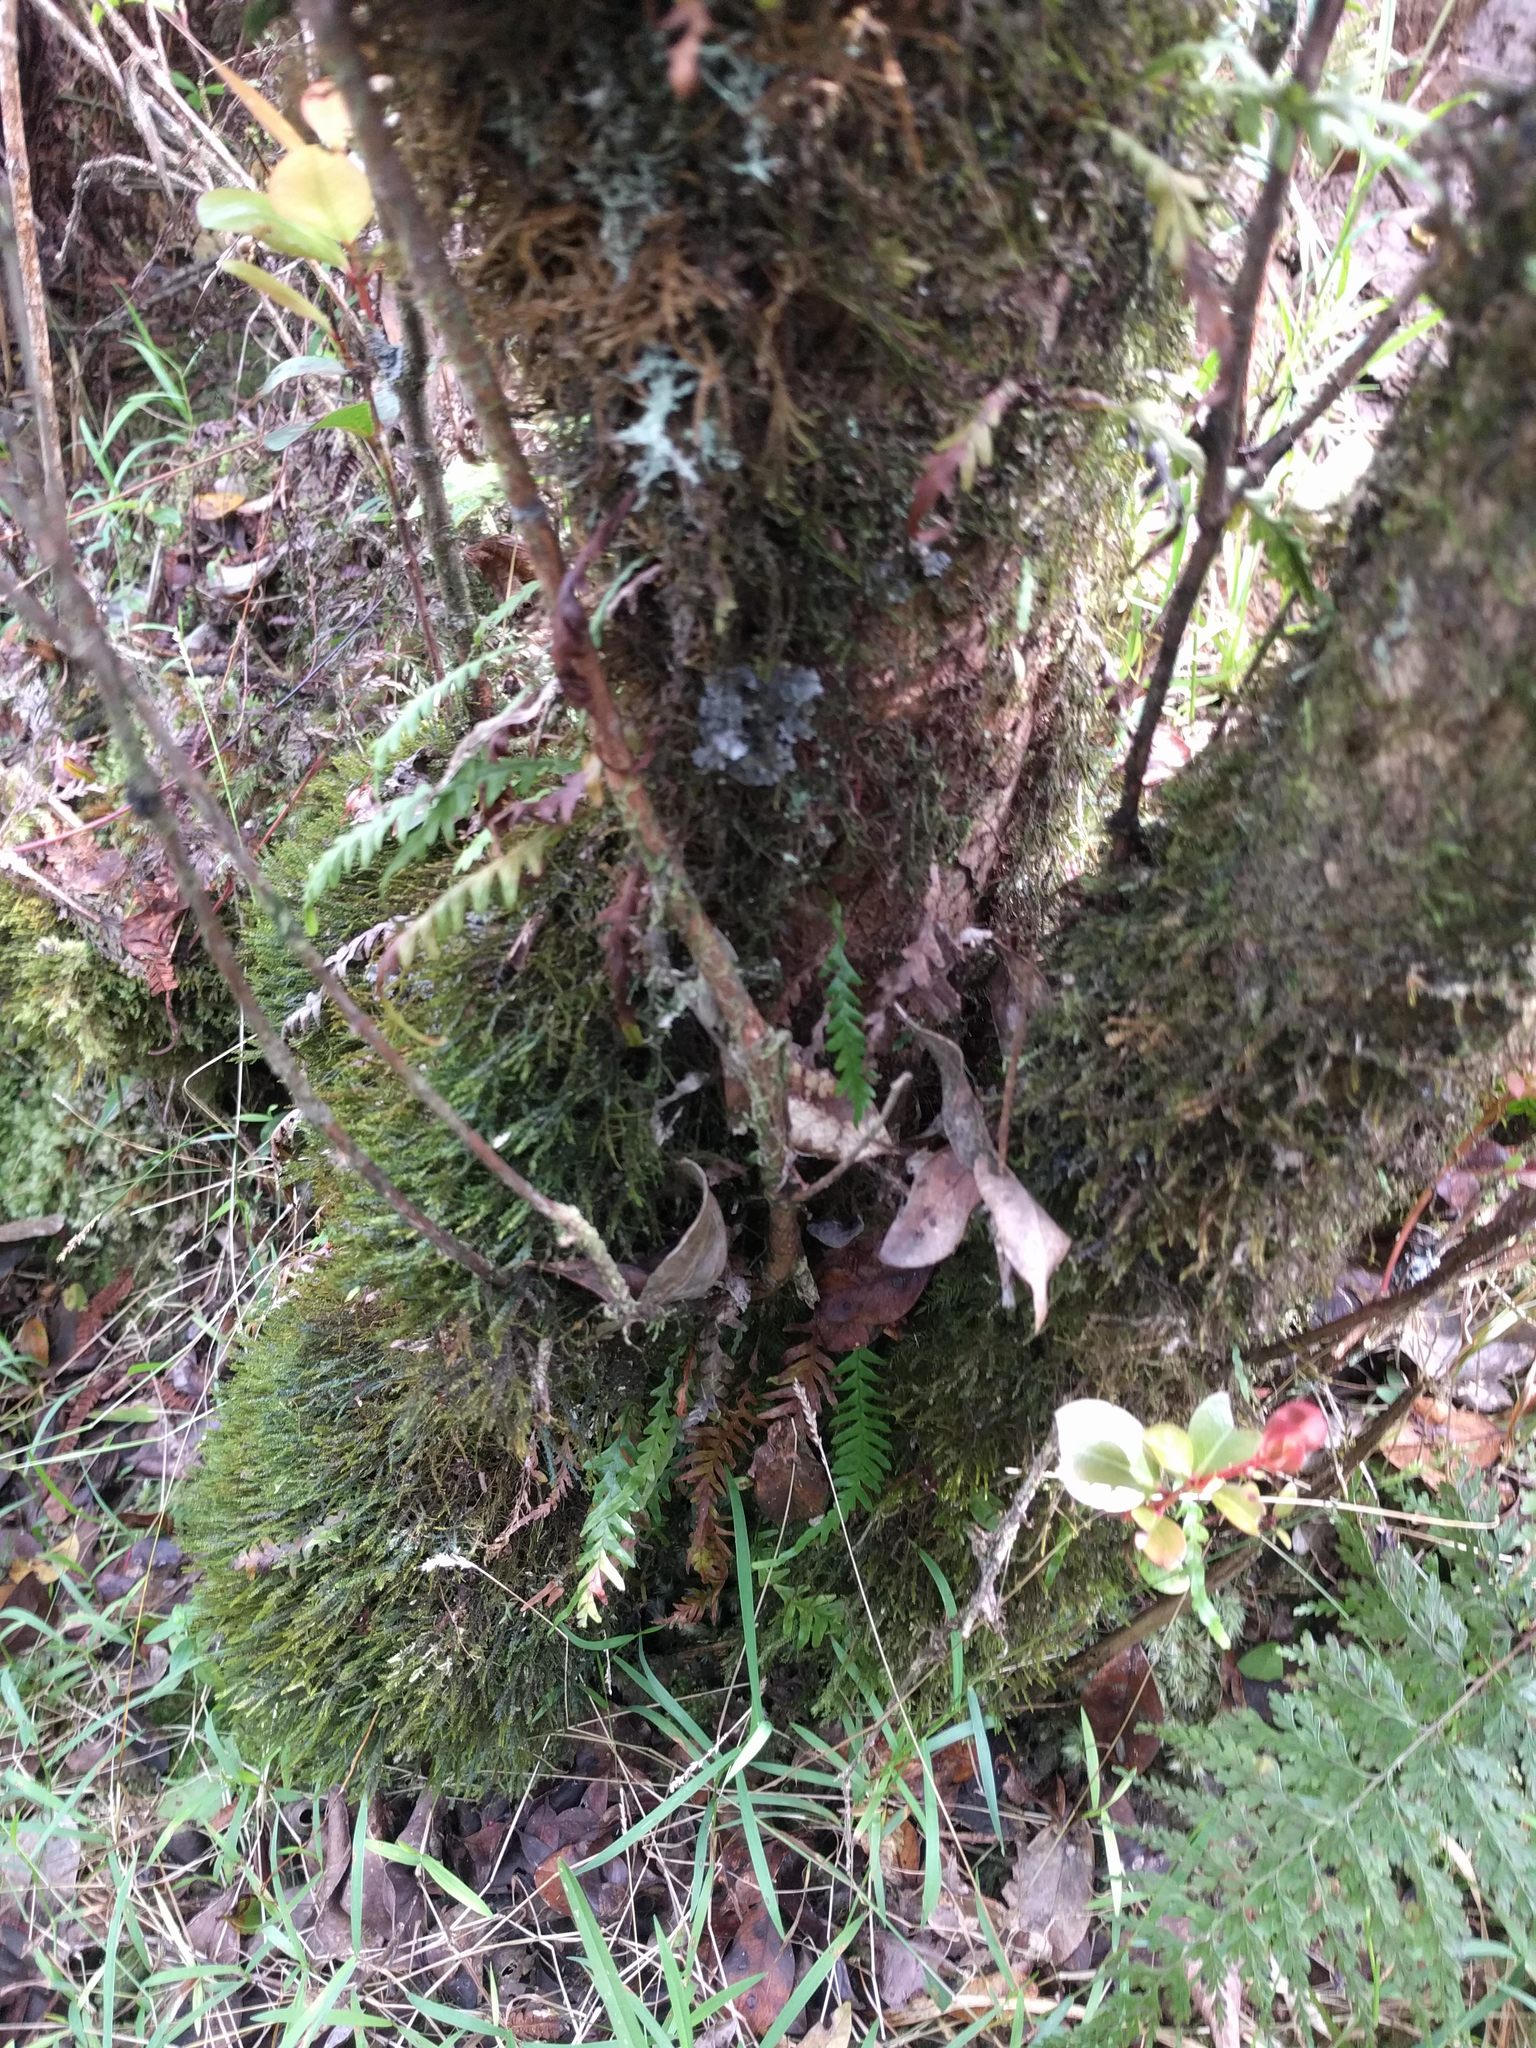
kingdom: Plantae
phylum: Tracheophyta
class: Polypodiopsida
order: Polypodiales
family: Polypodiaceae
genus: Adenophorus
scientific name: Adenophorus pinnatifidus
